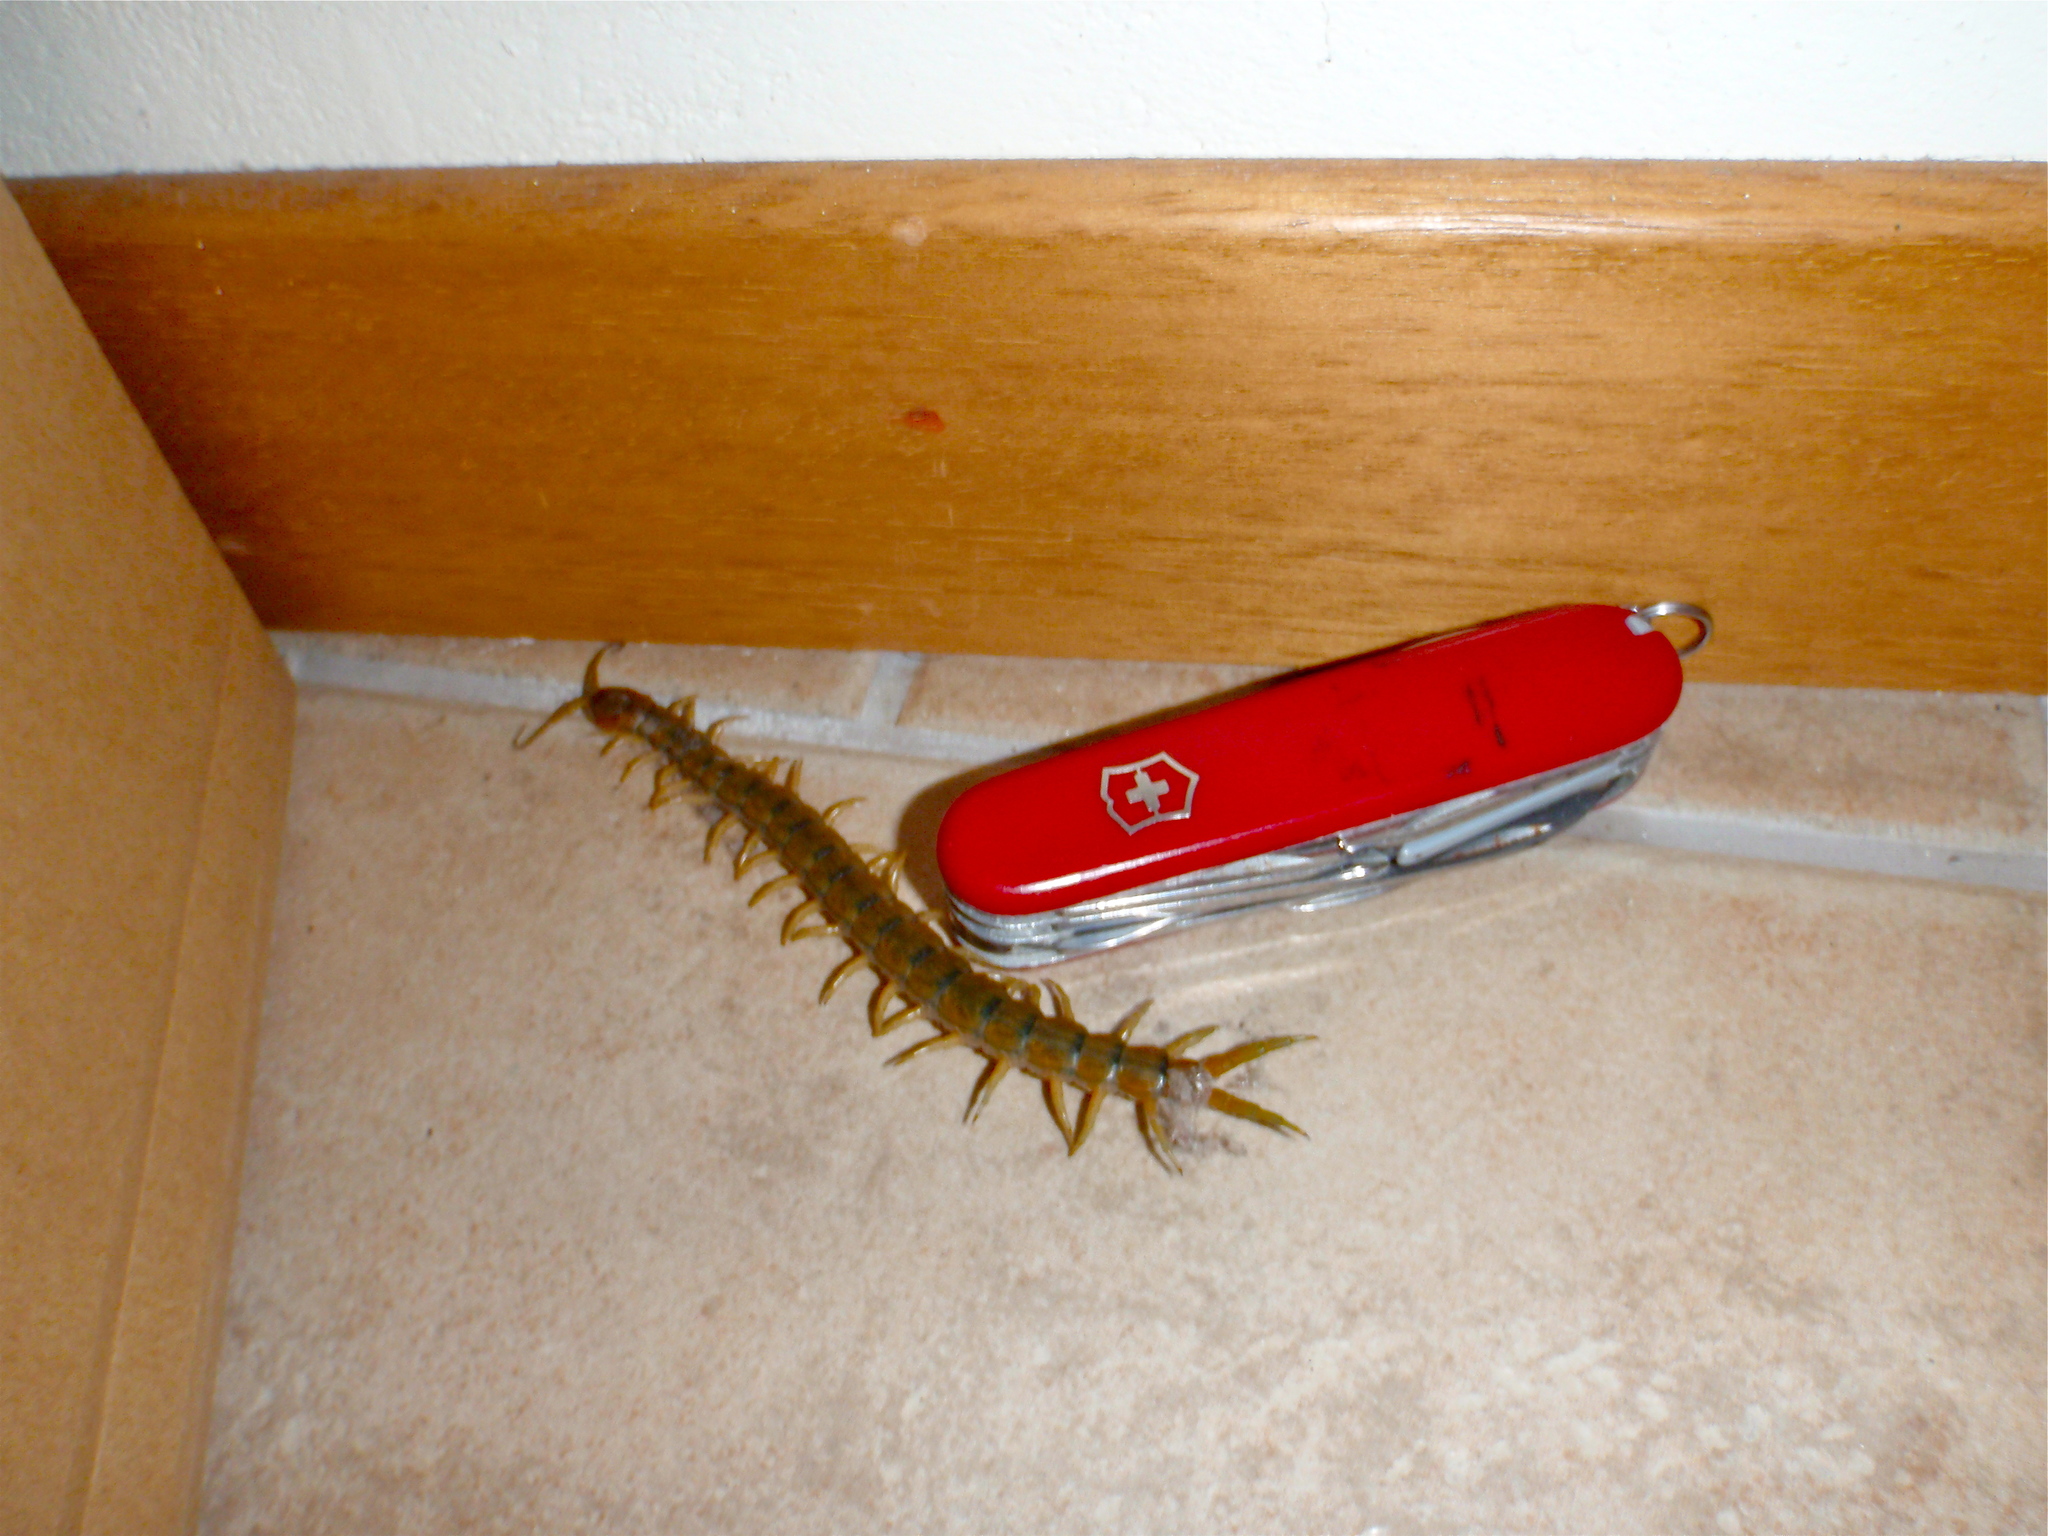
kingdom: Animalia
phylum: Arthropoda
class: Chilopoda
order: Scolopendromorpha
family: Scolopendridae
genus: Scolopendra
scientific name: Scolopendra cingulata
